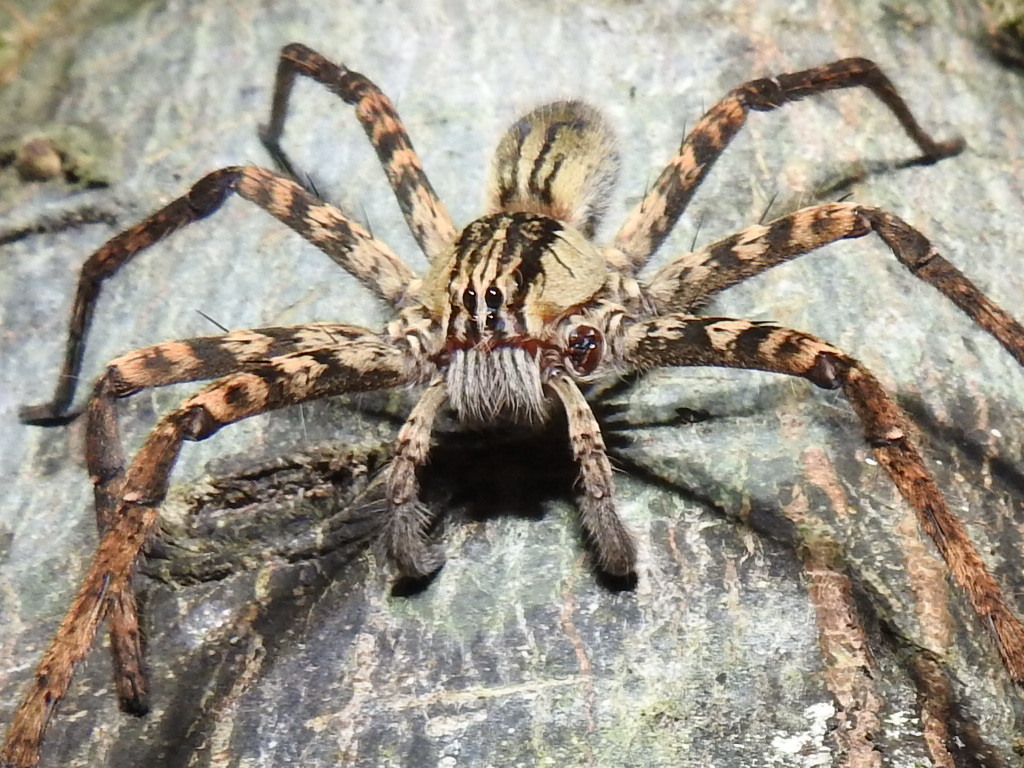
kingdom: Animalia
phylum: Arthropoda
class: Arachnida
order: Araneae
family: Trechaleidae
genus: Cupiennius
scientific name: Cupiennius coccineus
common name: Wandering spiders
